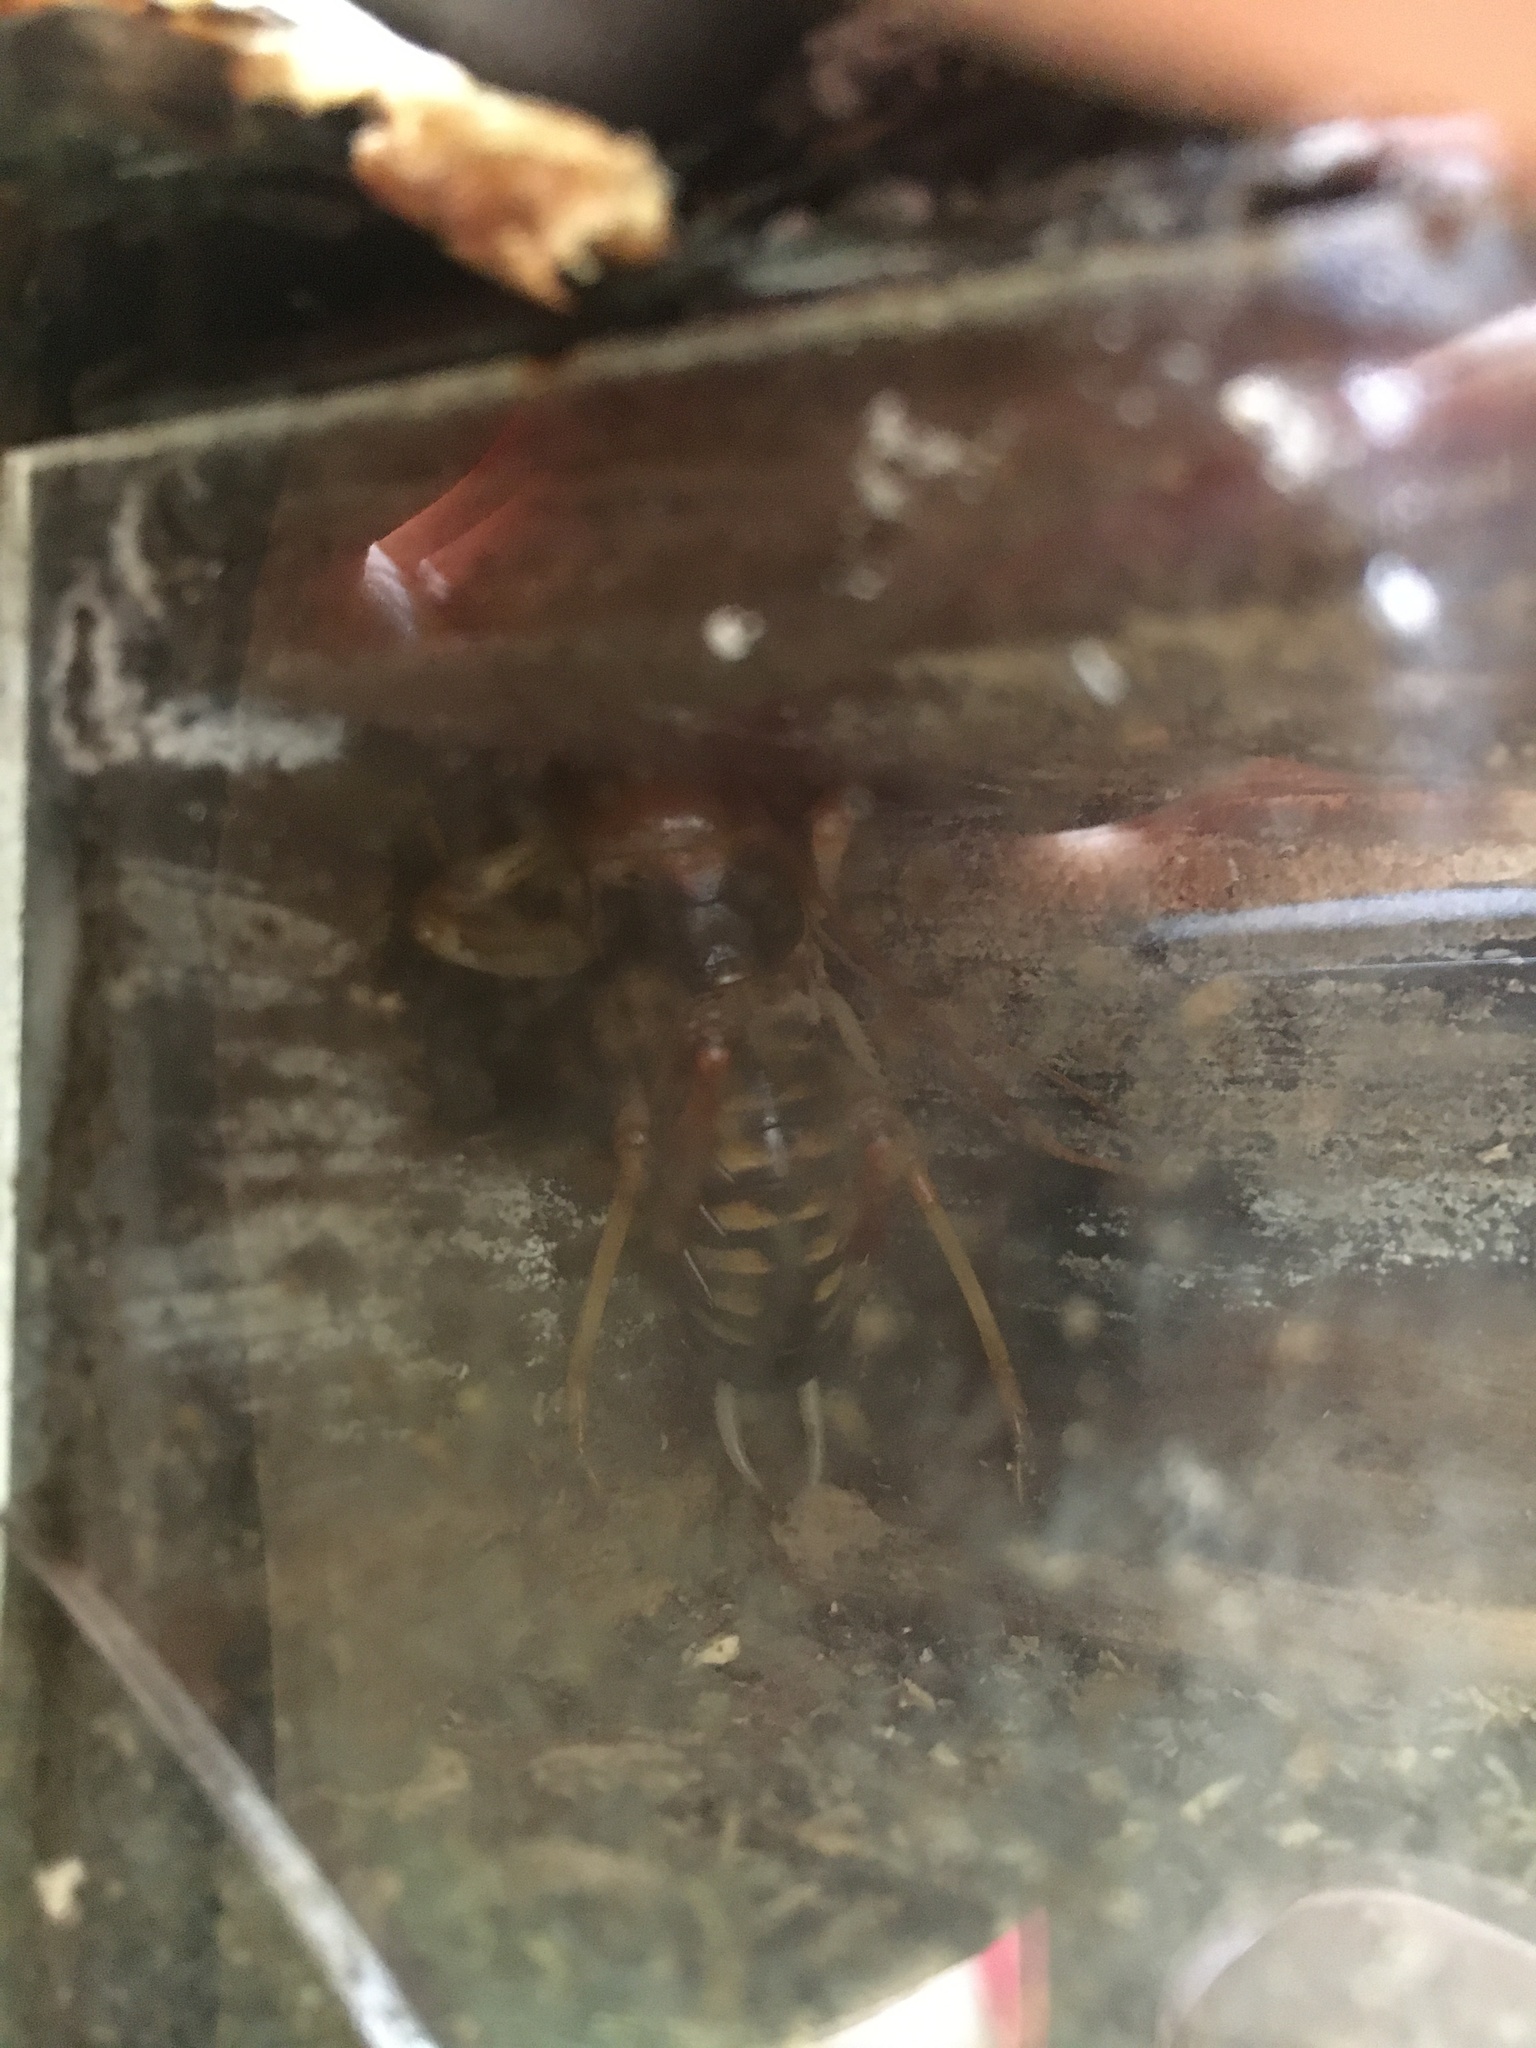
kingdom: Animalia
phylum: Arthropoda
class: Insecta
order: Orthoptera
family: Anostostomatidae
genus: Hemideina
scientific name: Hemideina crassidens
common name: Wellington tree weta
